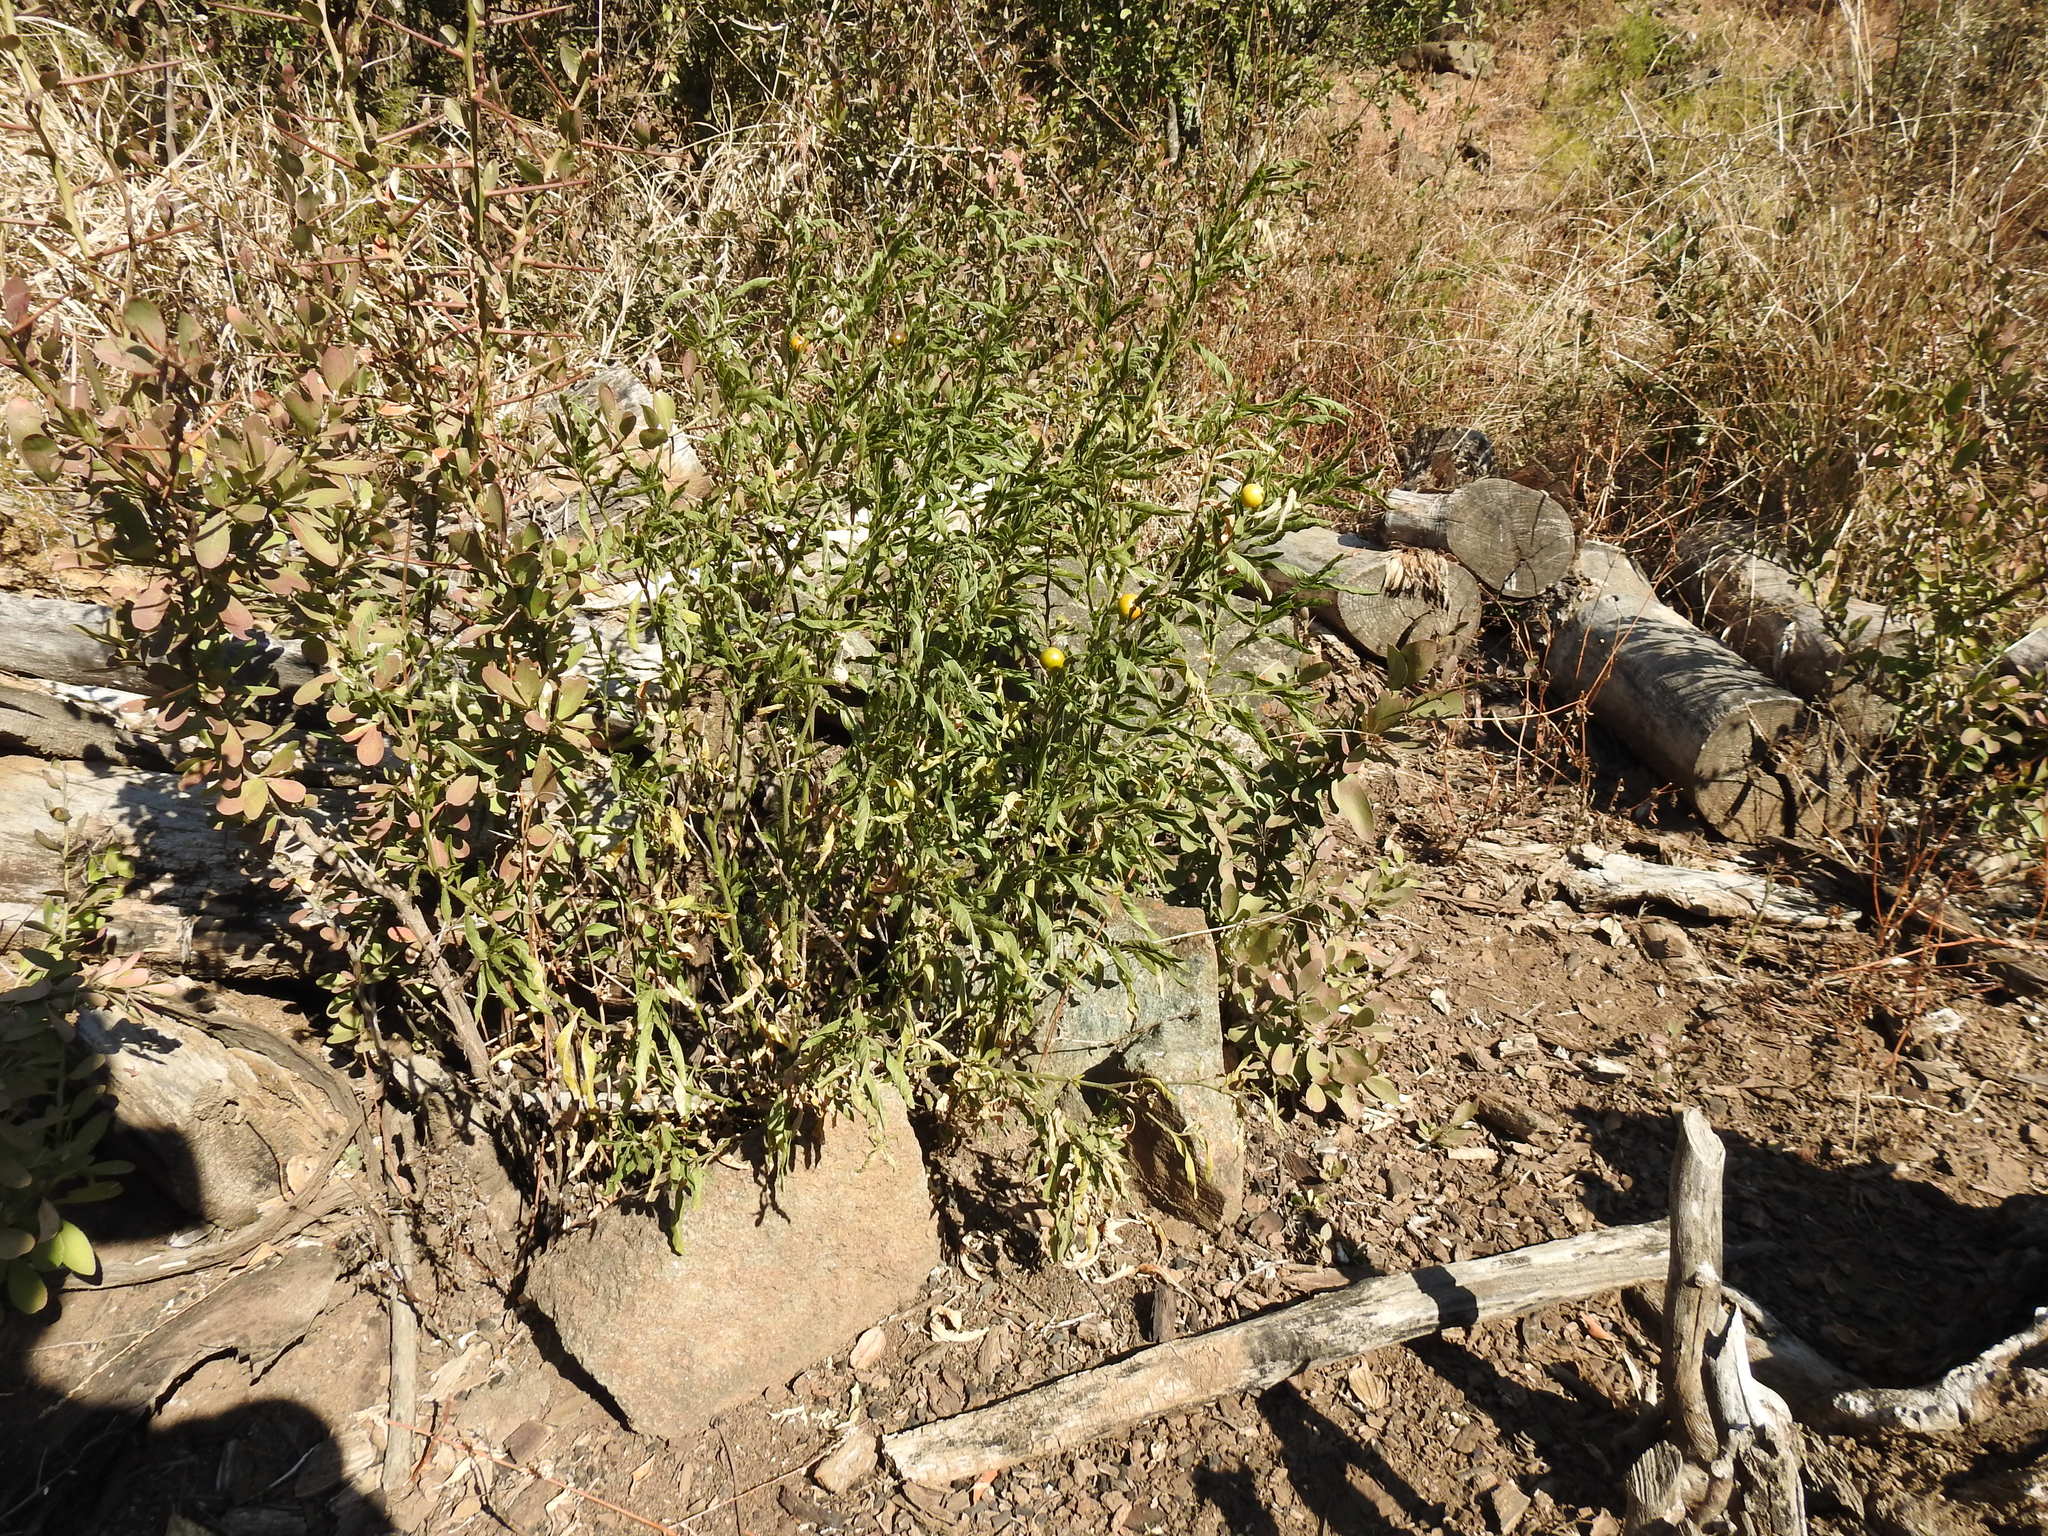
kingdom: Plantae
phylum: Tracheophyta
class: Magnoliopsida
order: Solanales
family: Solanaceae
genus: Solanum
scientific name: Solanum pseudocapsicum
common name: Jerusalem cherry
